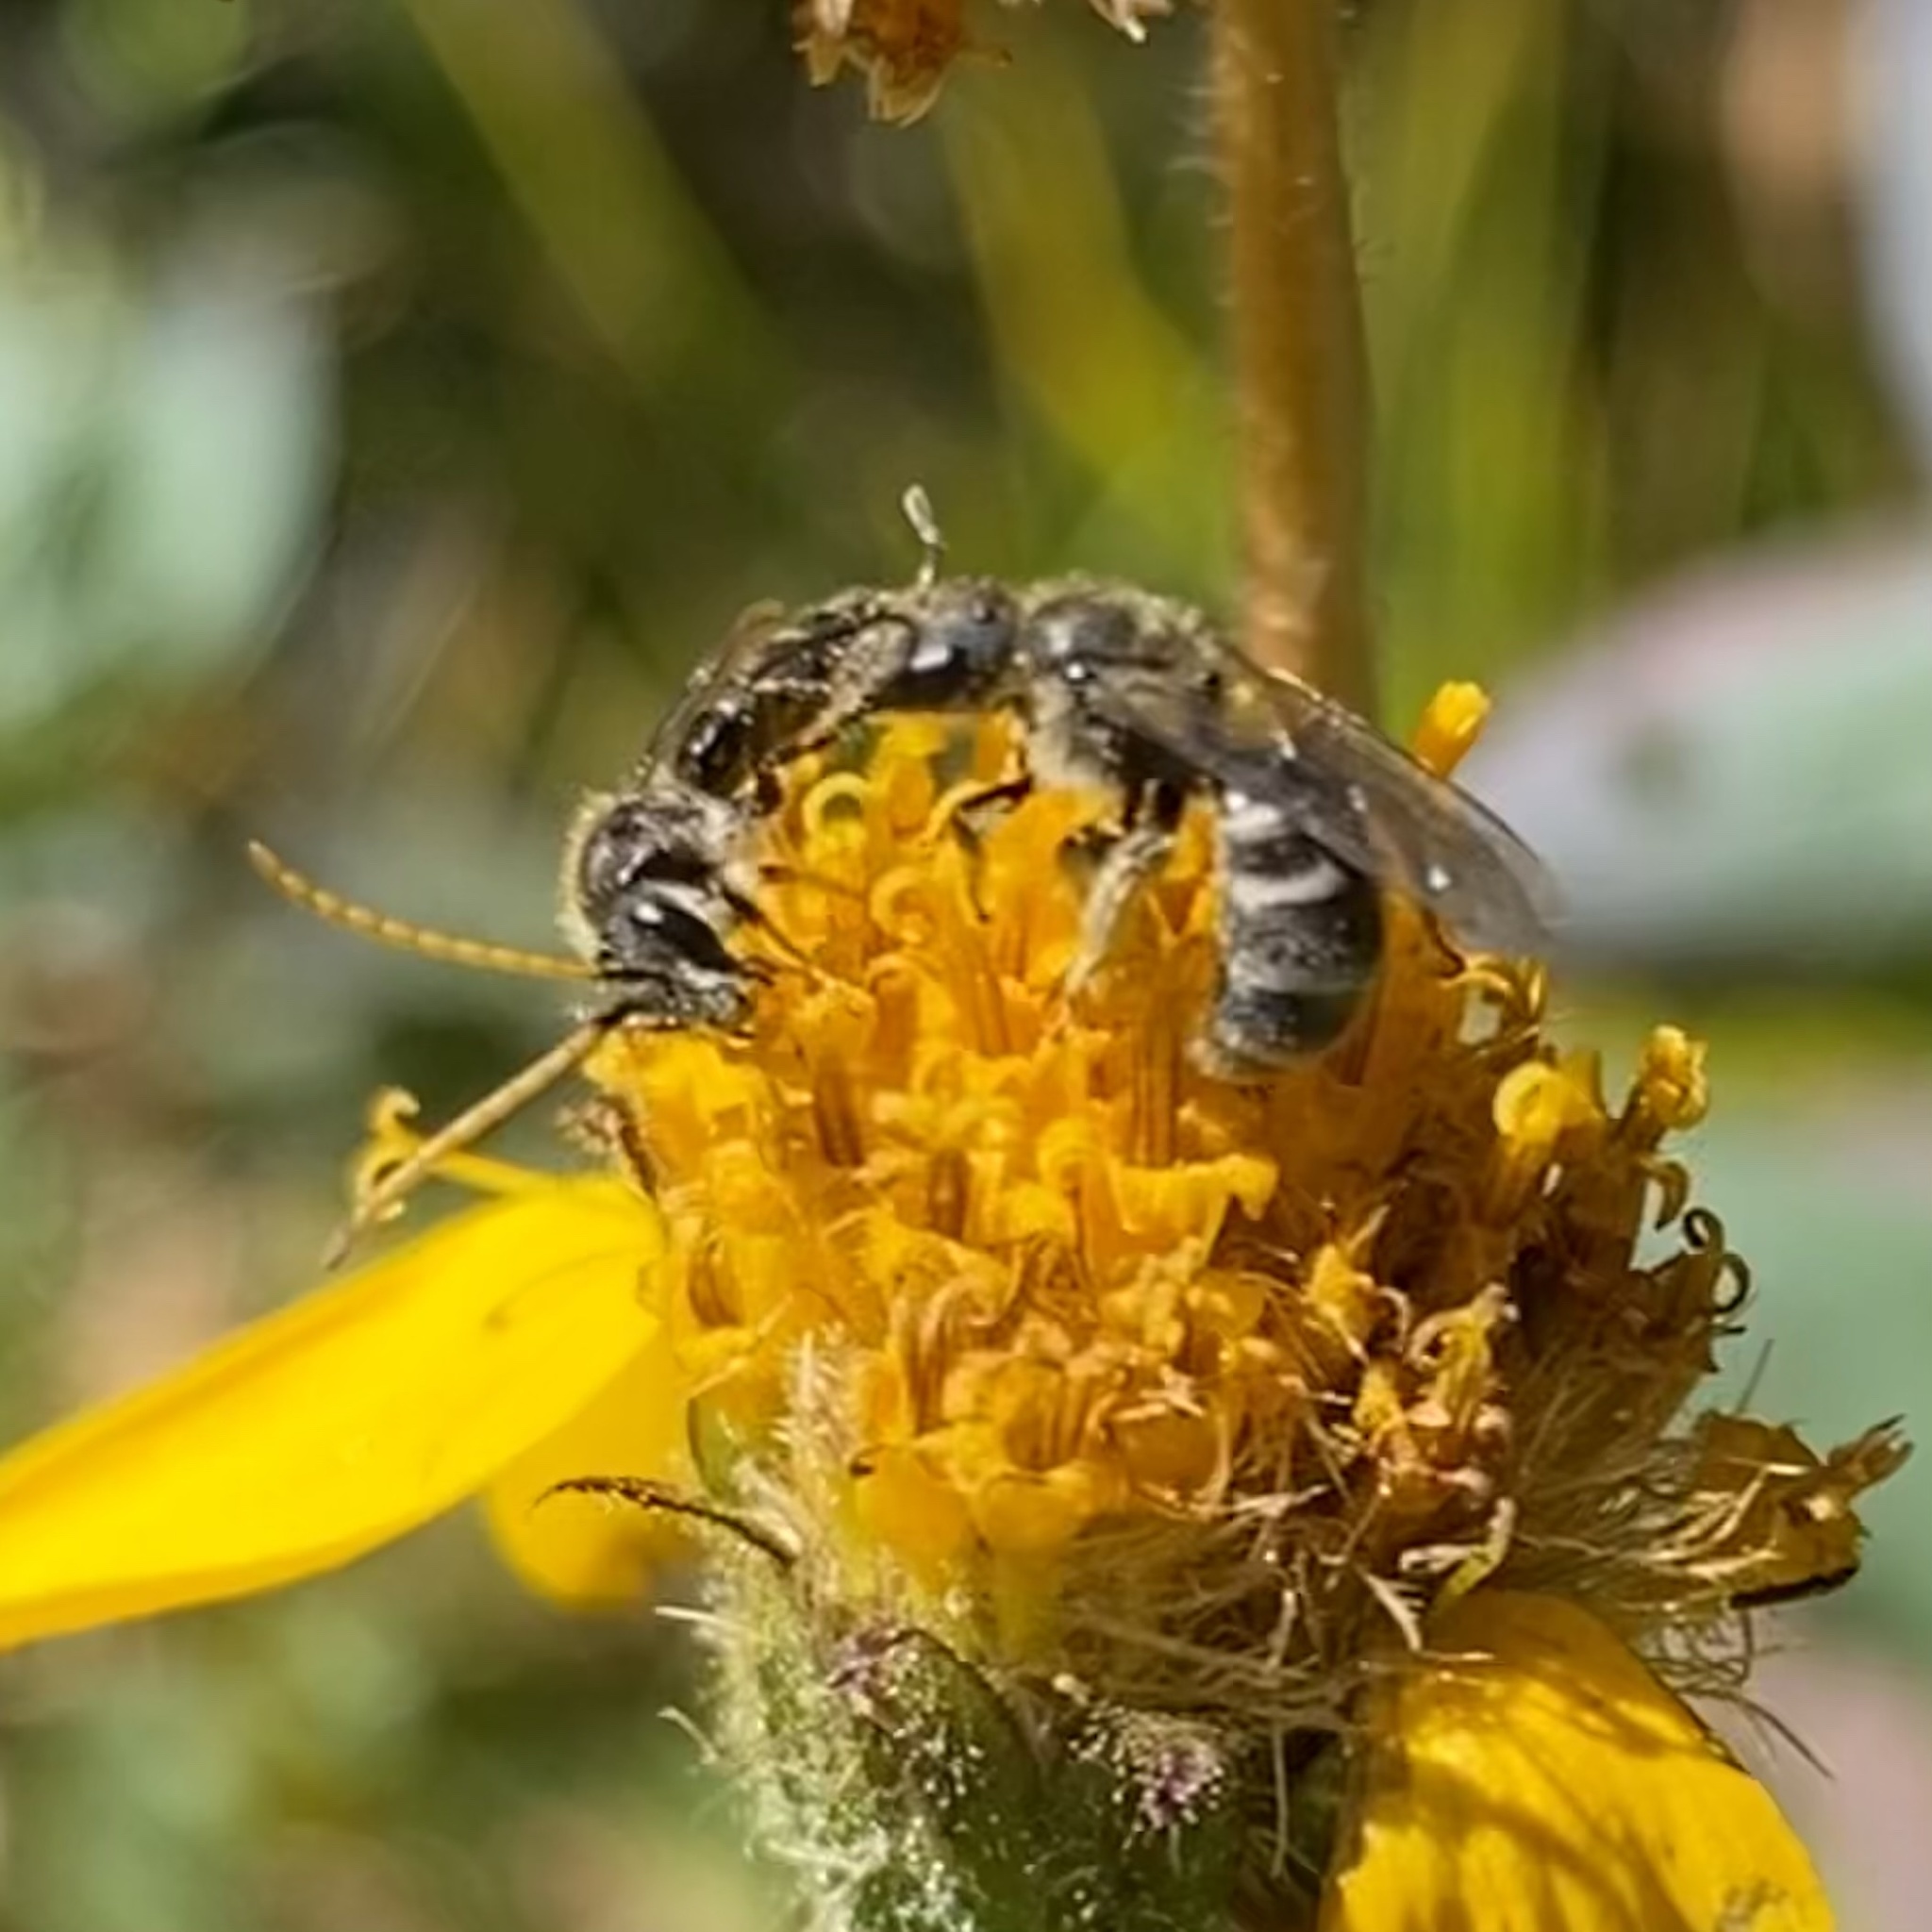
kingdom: Animalia
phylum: Arthropoda
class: Insecta
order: Hymenoptera
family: Halictidae
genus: Lasioglossum
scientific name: Lasioglossum
